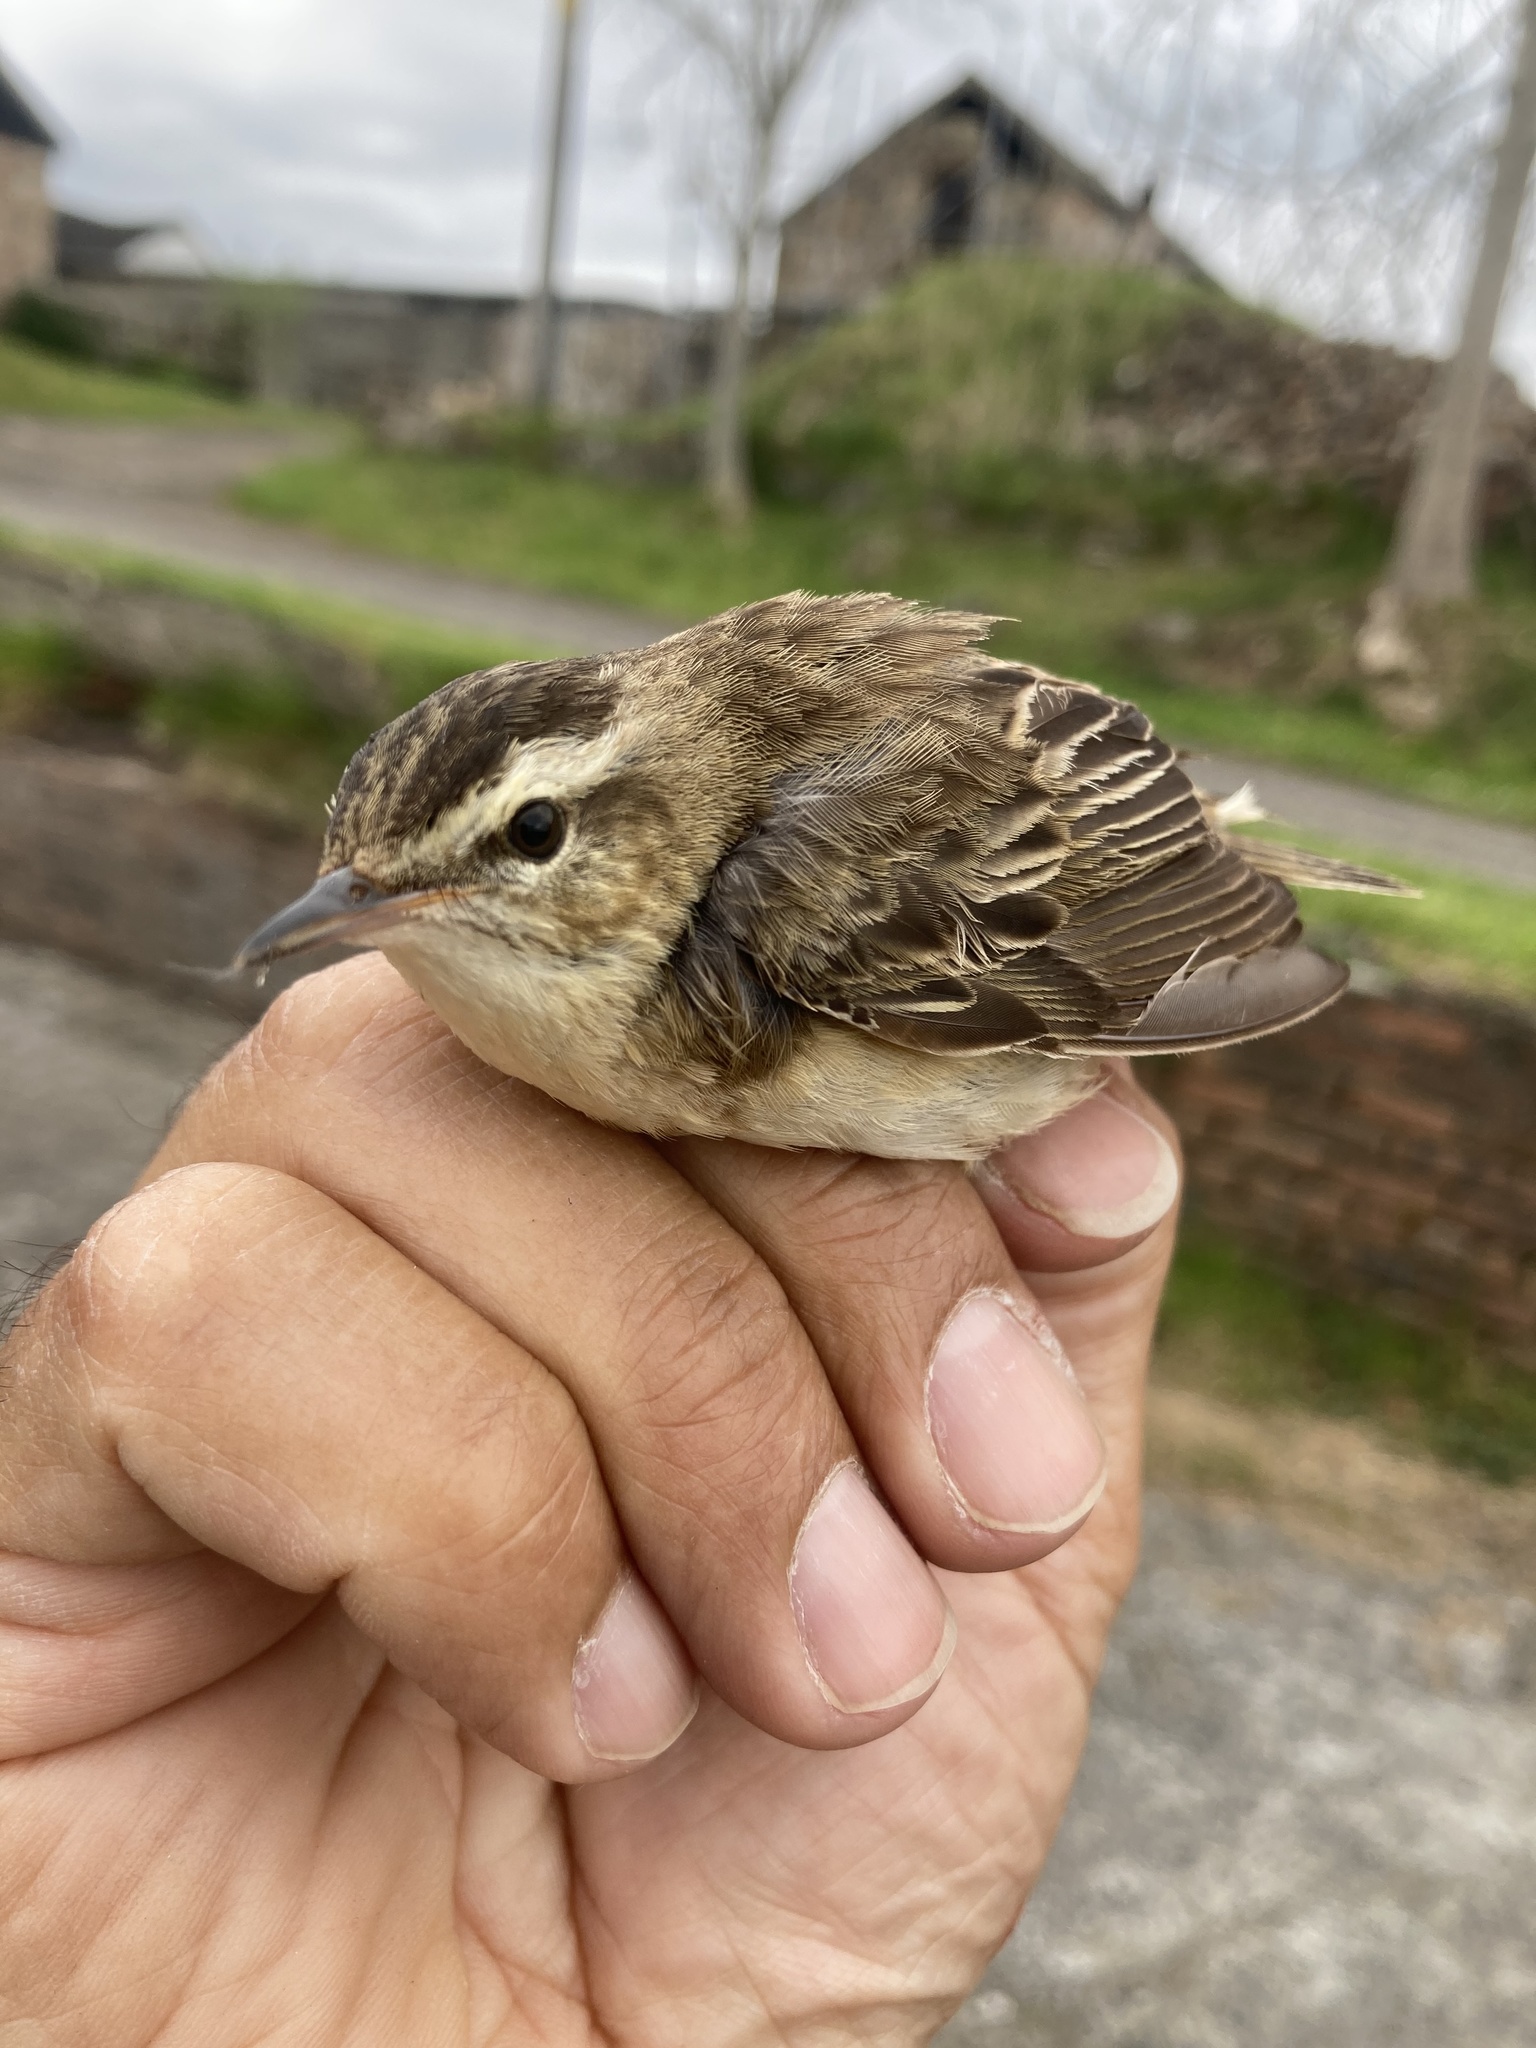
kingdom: Animalia
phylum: Chordata
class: Aves
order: Passeriformes
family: Acrocephalidae
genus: Acrocephalus
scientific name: Acrocephalus schoenobaenus
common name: Sedge warbler
